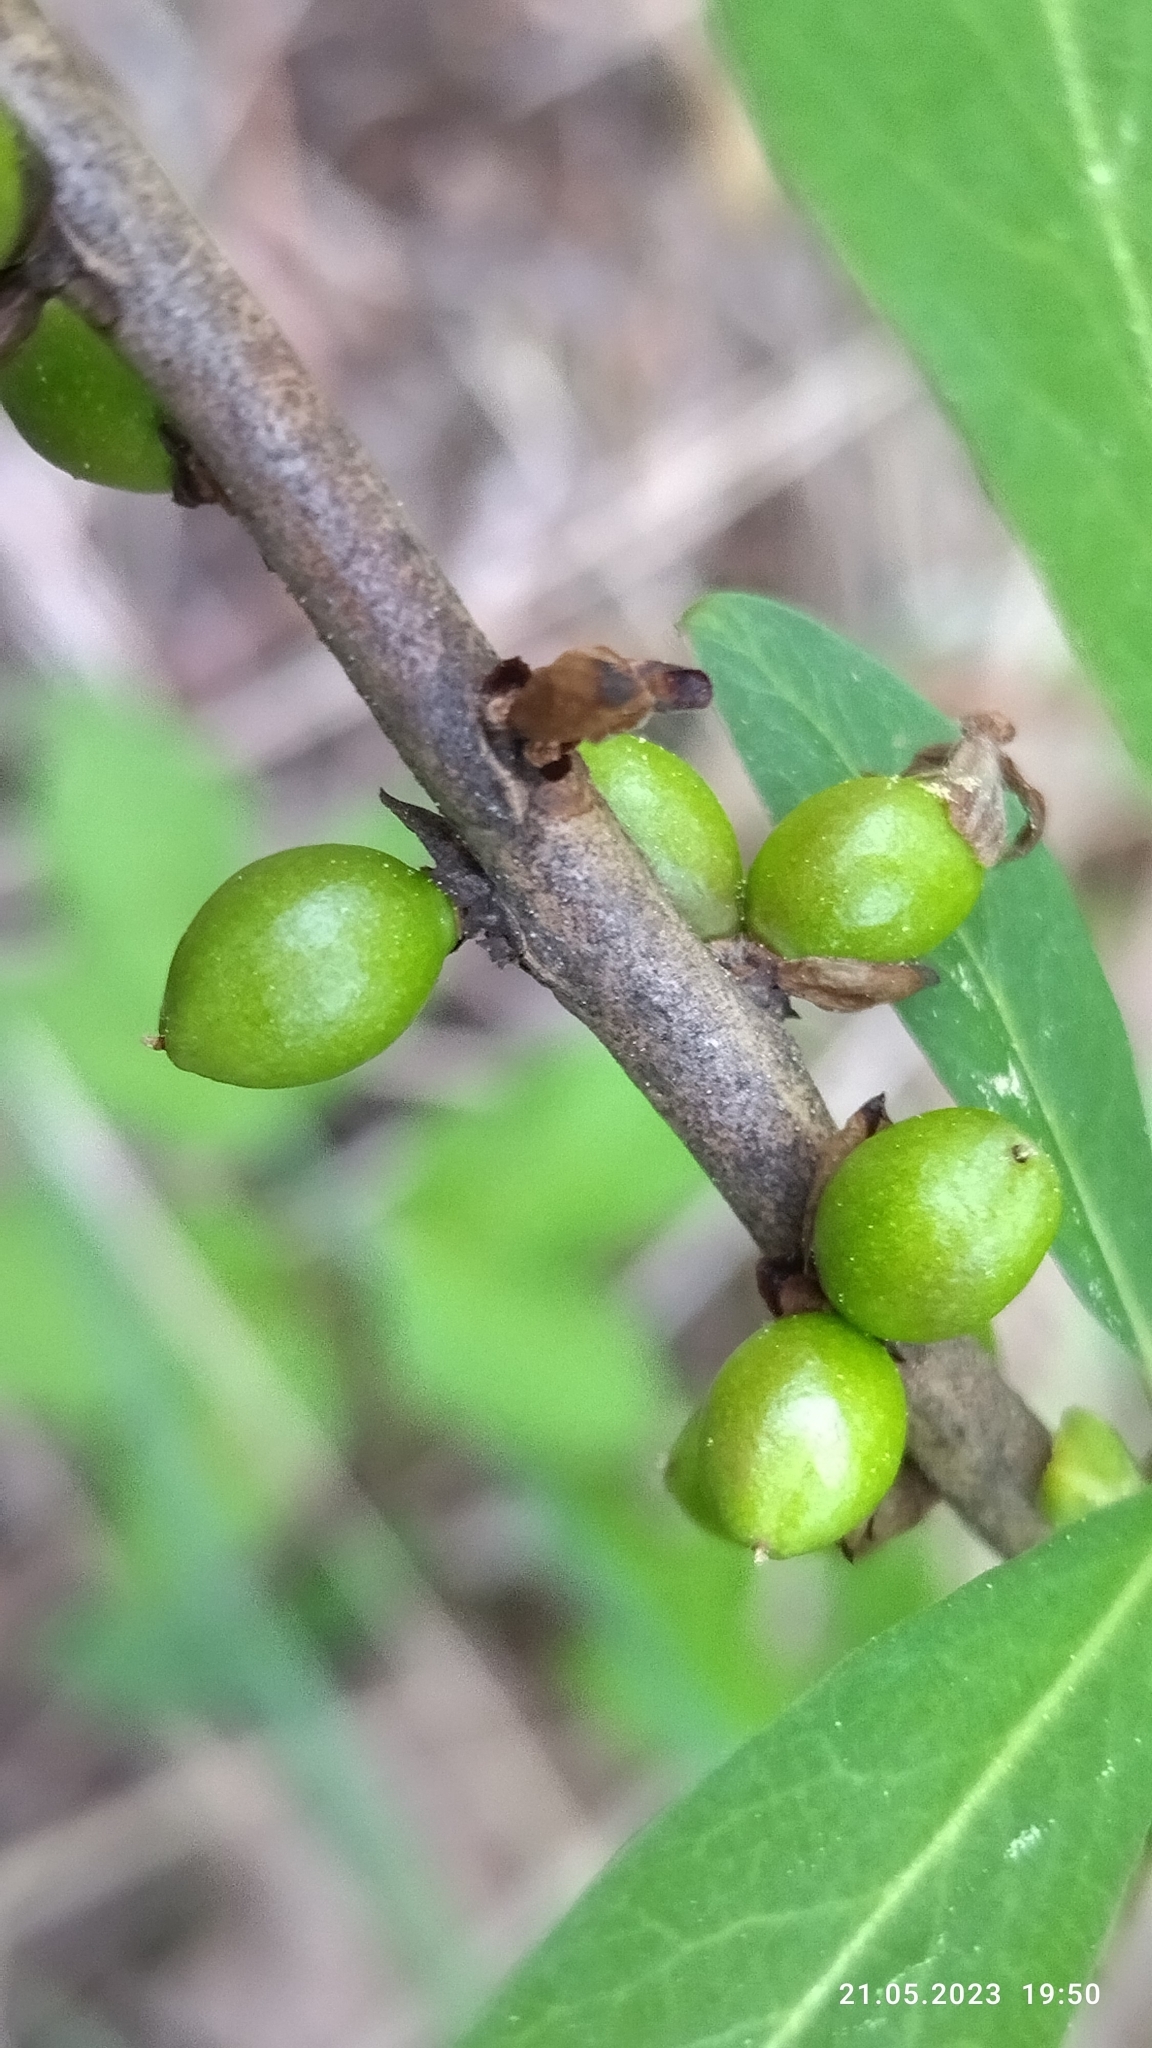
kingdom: Plantae
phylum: Tracheophyta
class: Magnoliopsida
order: Malvales
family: Thymelaeaceae
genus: Daphne
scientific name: Daphne mezereum
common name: Mezereon
